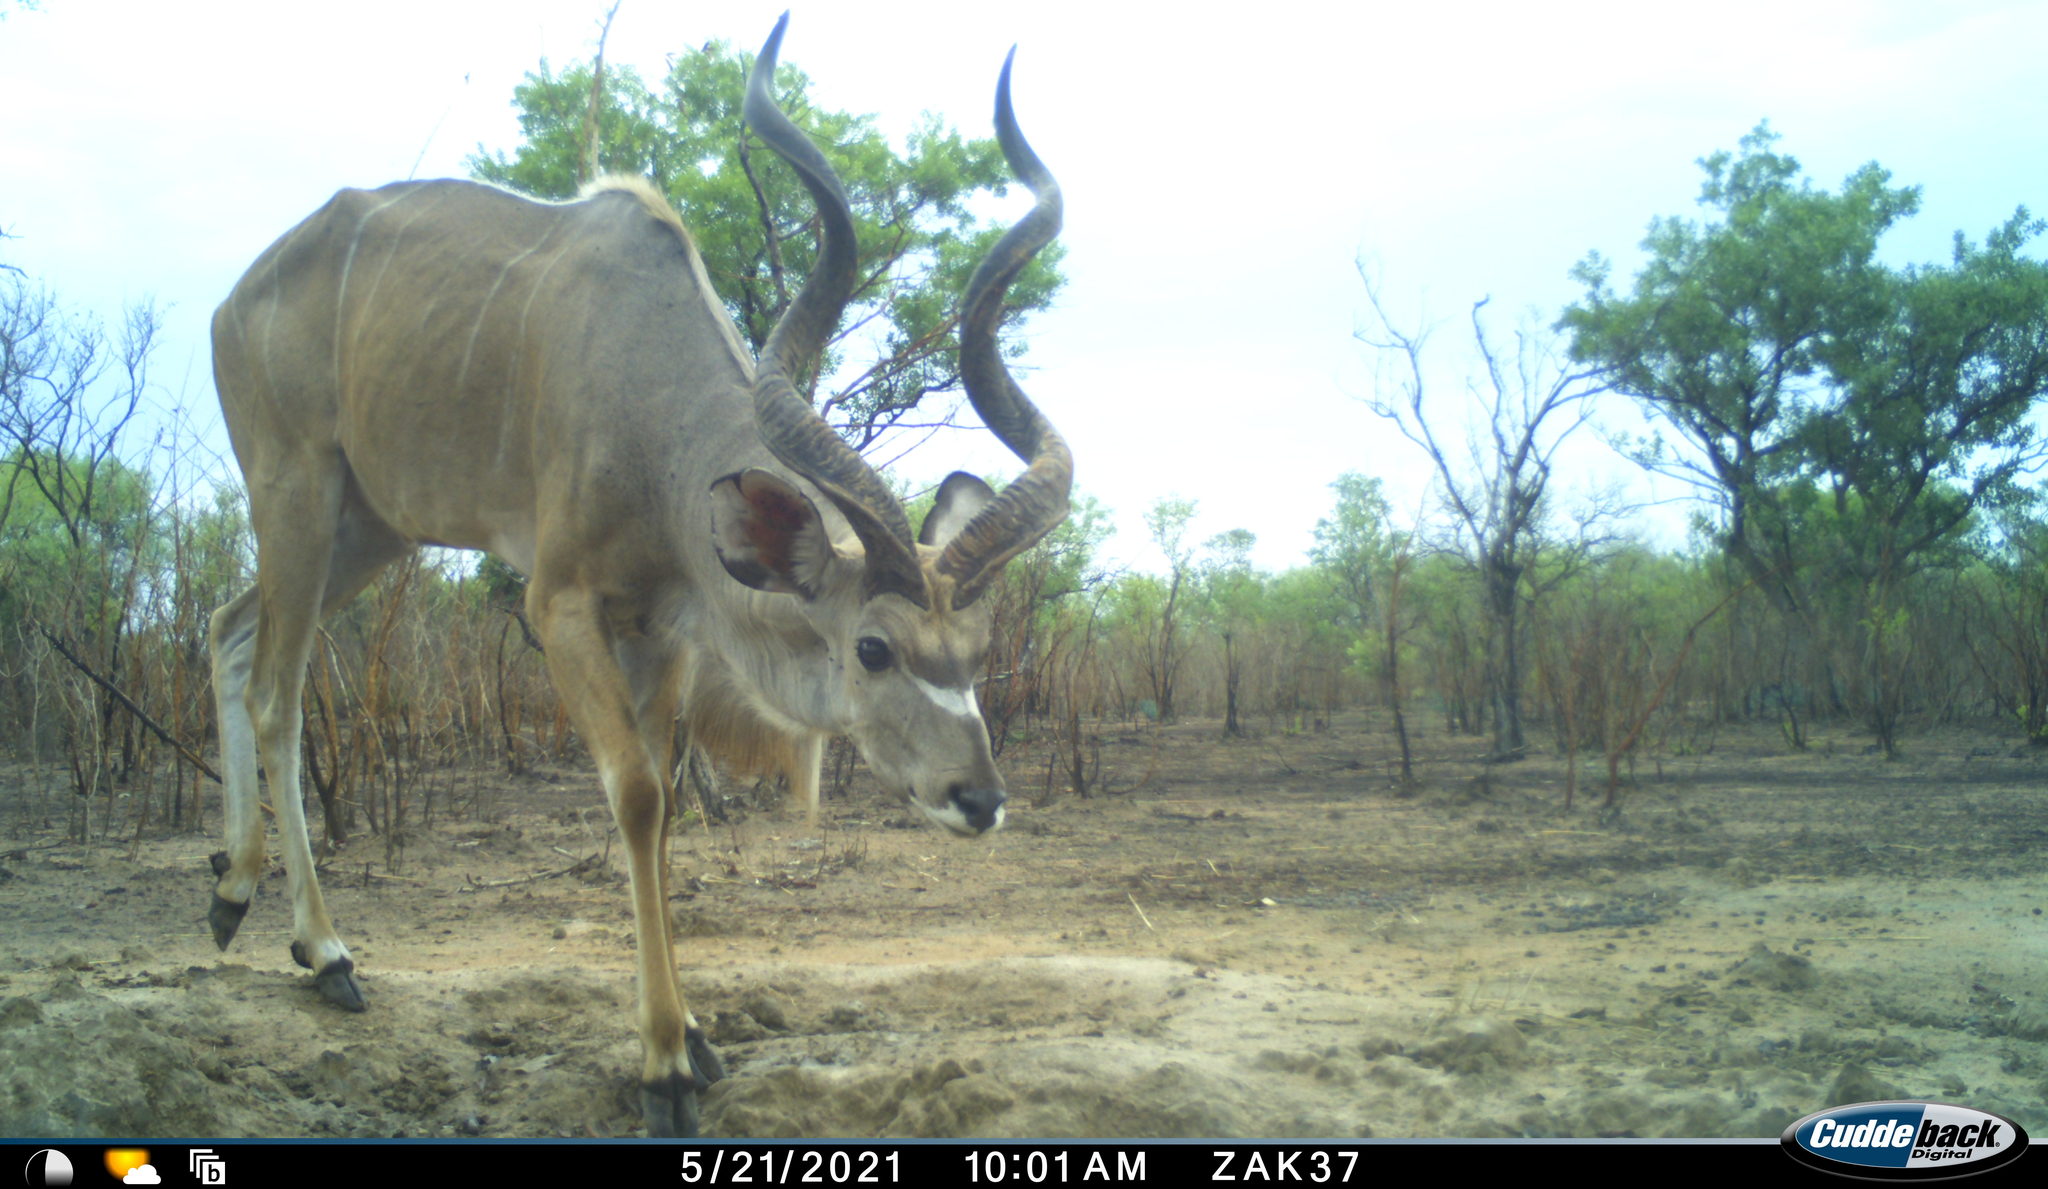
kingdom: Animalia
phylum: Chordata
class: Mammalia
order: Artiodactyla
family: Bovidae
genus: Tragelaphus
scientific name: Tragelaphus strepsiceros
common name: Greater kudu
